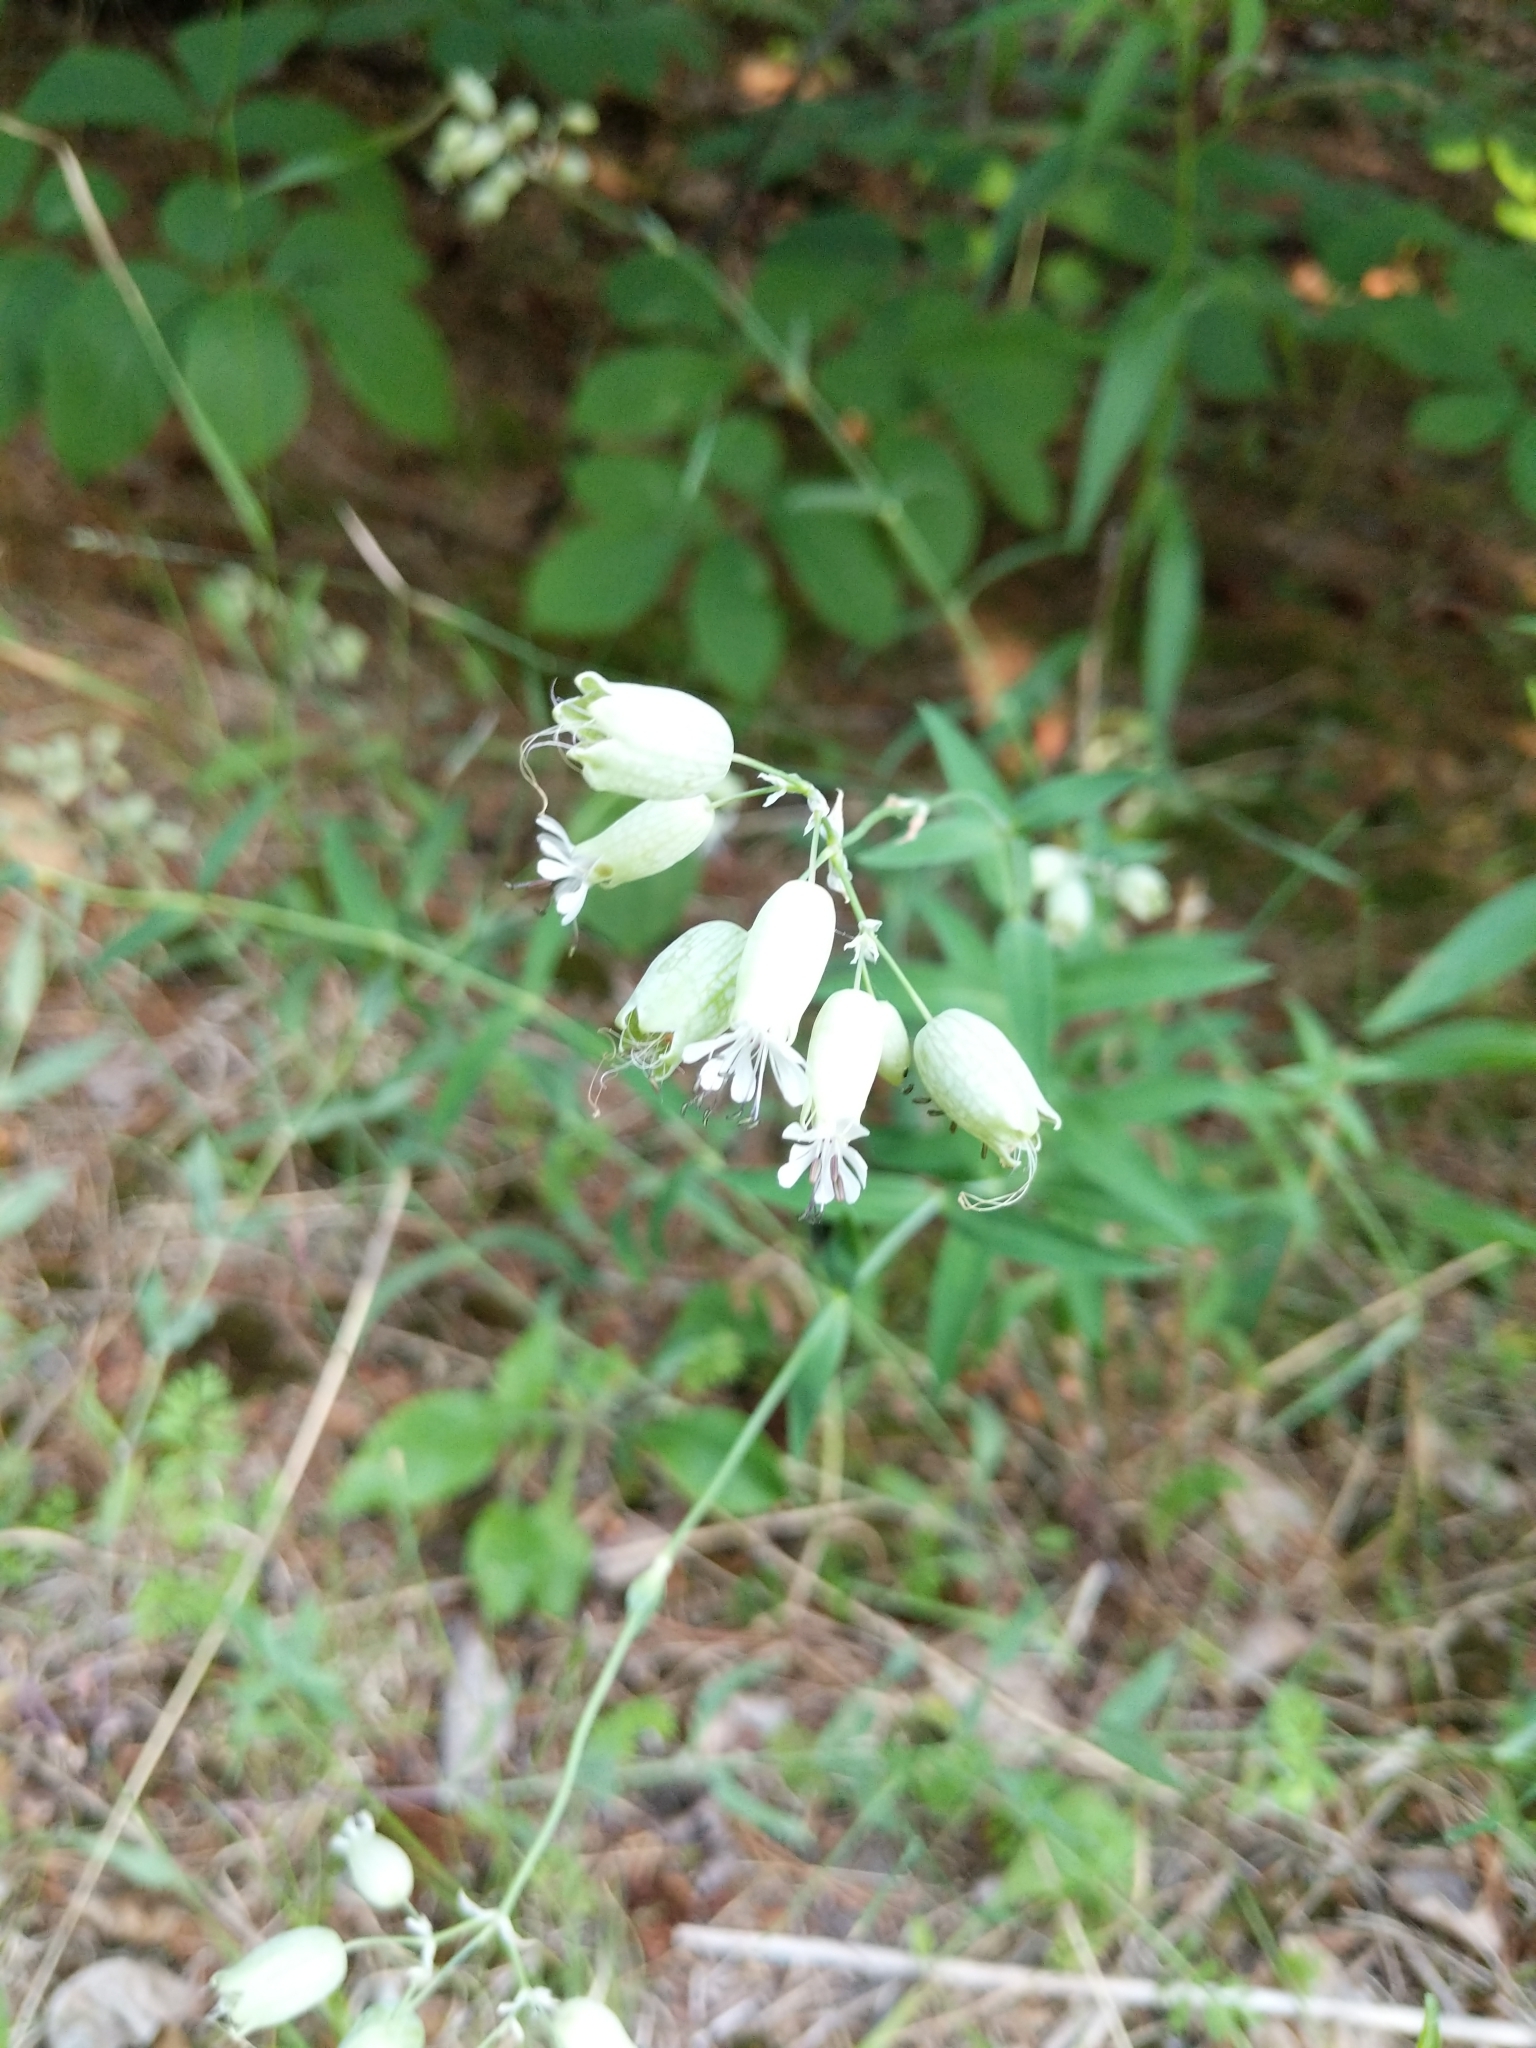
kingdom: Plantae
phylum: Tracheophyta
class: Magnoliopsida
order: Caryophyllales
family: Caryophyllaceae
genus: Silene
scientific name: Silene vulgaris
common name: Bladder campion
